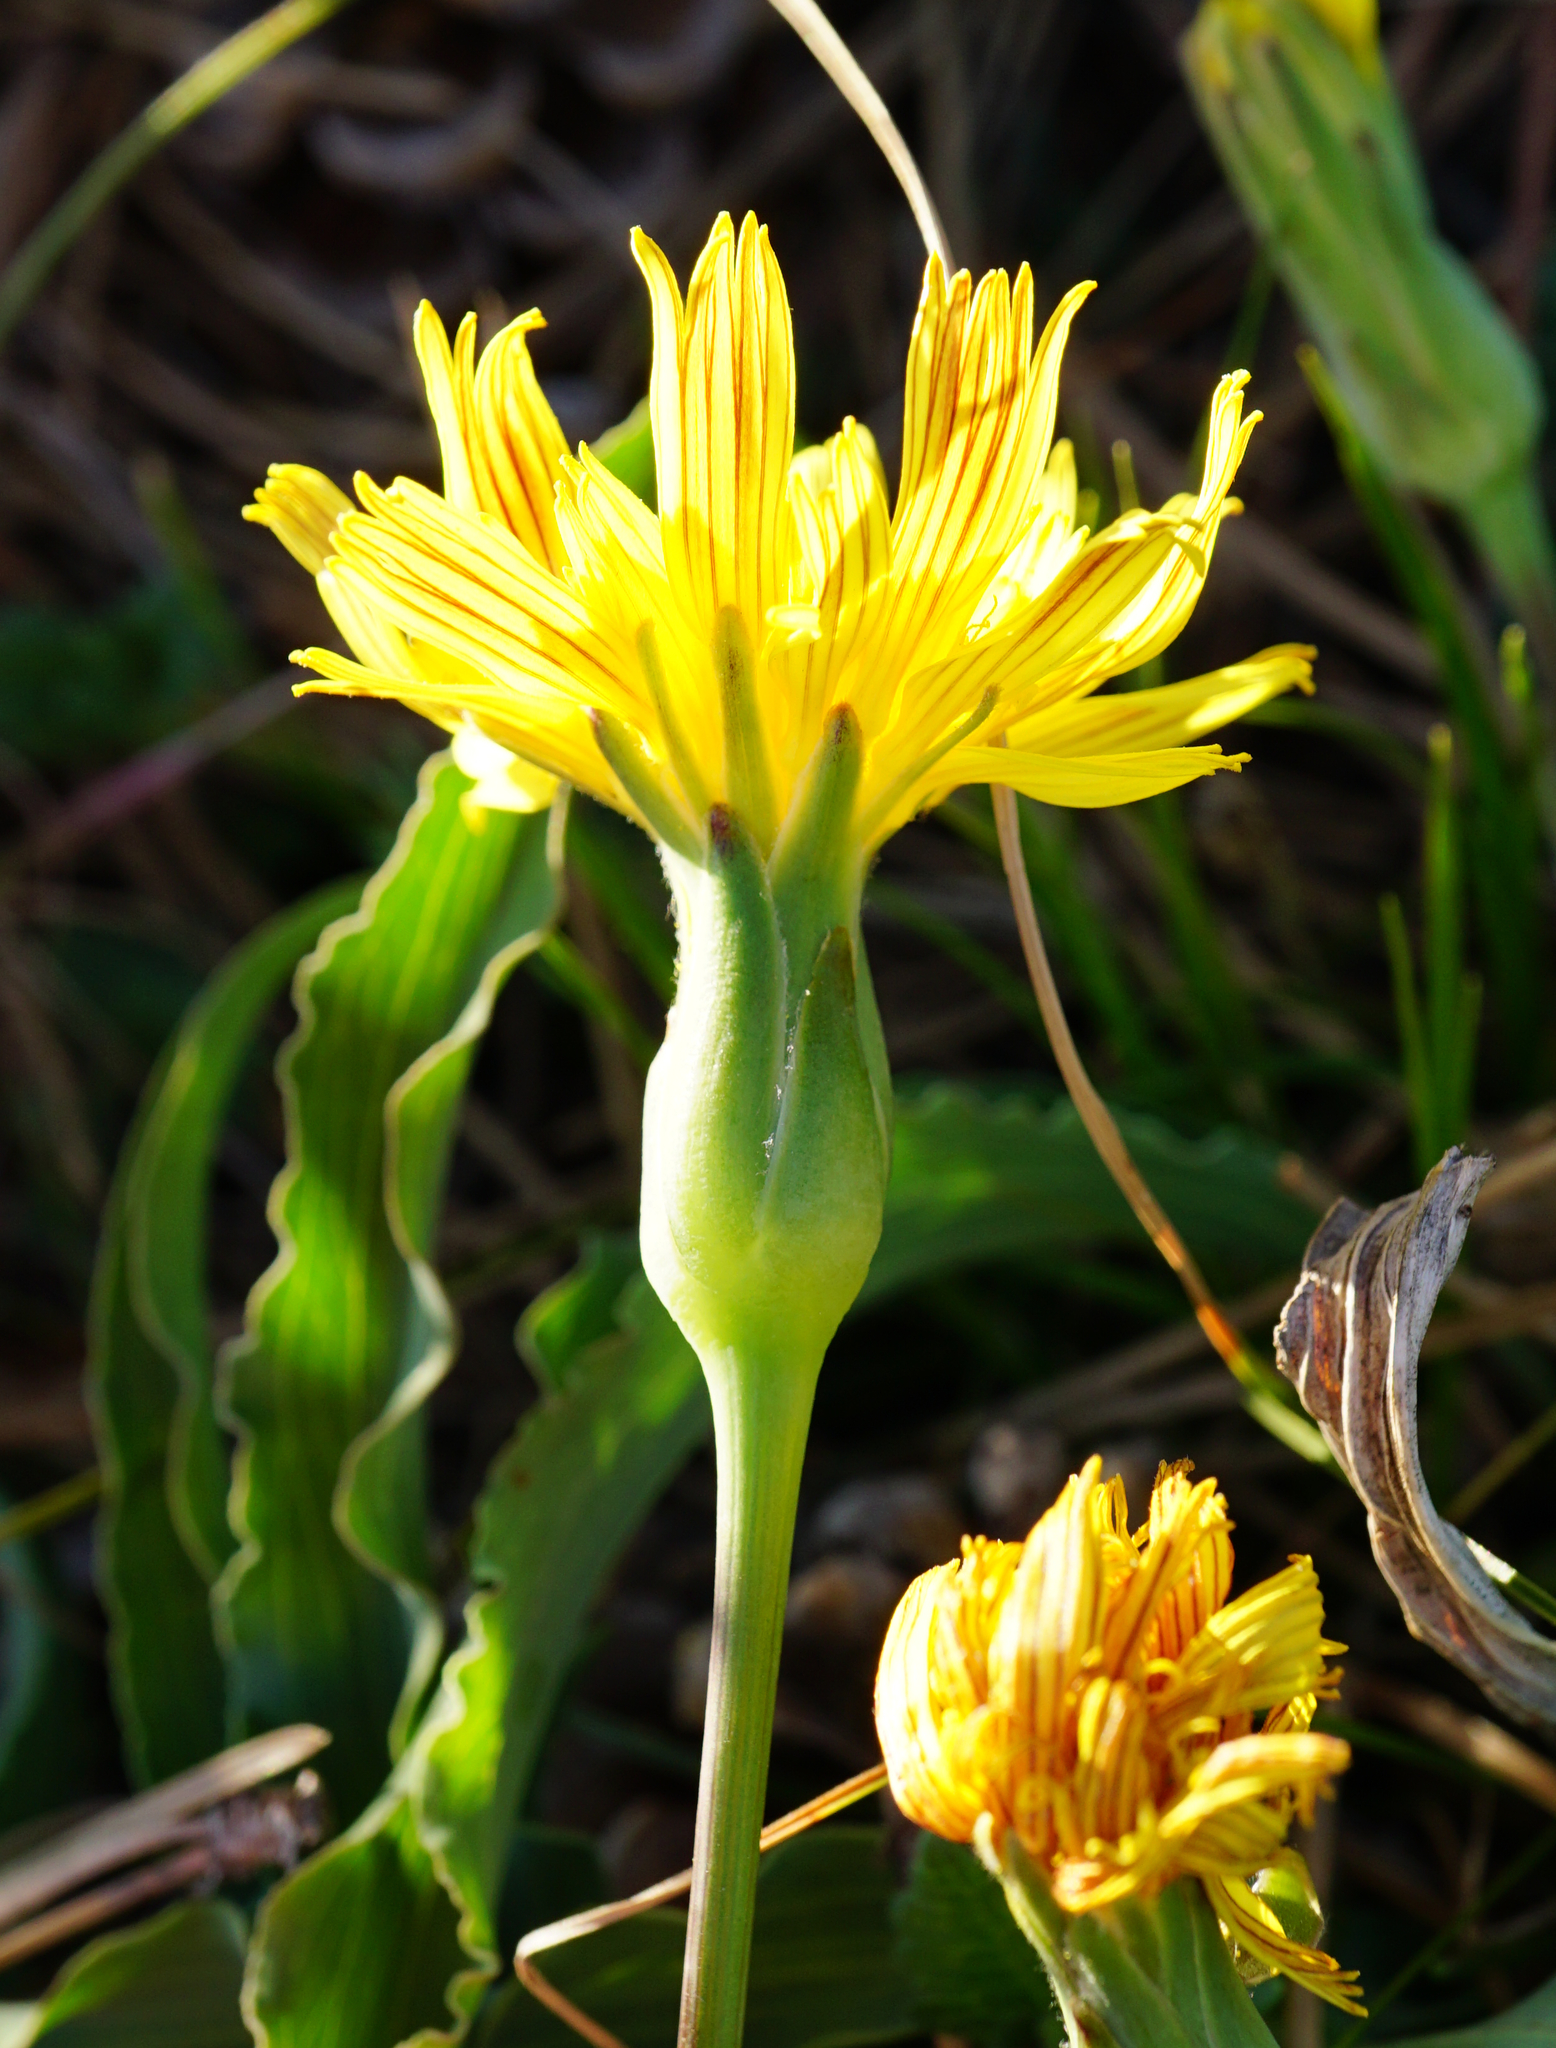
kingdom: Plantae
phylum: Tracheophyta
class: Magnoliopsida
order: Asterales
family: Asteraceae
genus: Takhtajaniantha
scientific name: Takhtajaniantha austriaca
